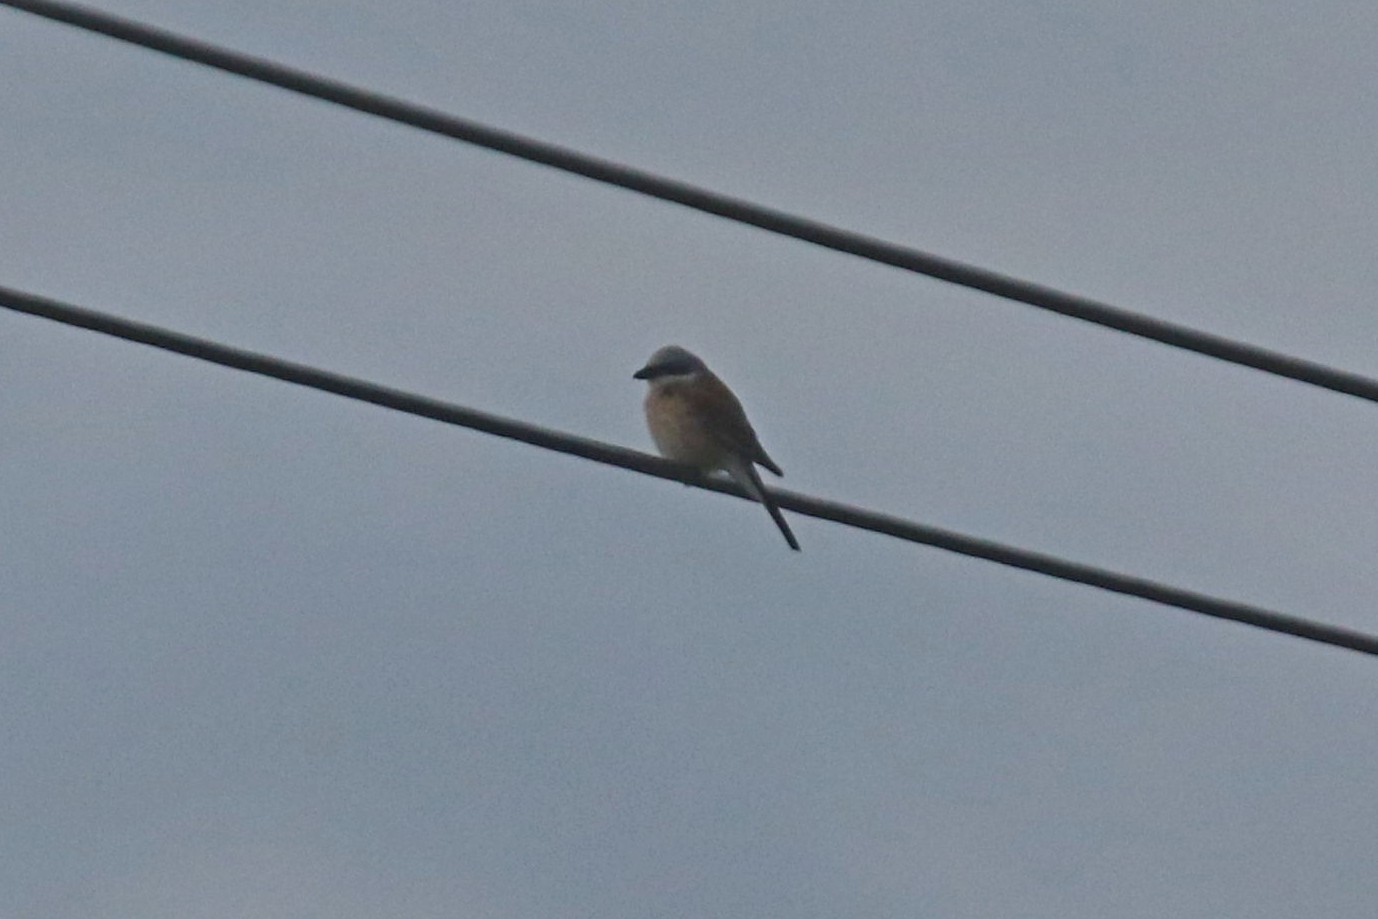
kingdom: Animalia
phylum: Chordata
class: Aves
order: Passeriformes
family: Laniidae
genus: Lanius
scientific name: Lanius collurio
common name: Red-backed shrike
